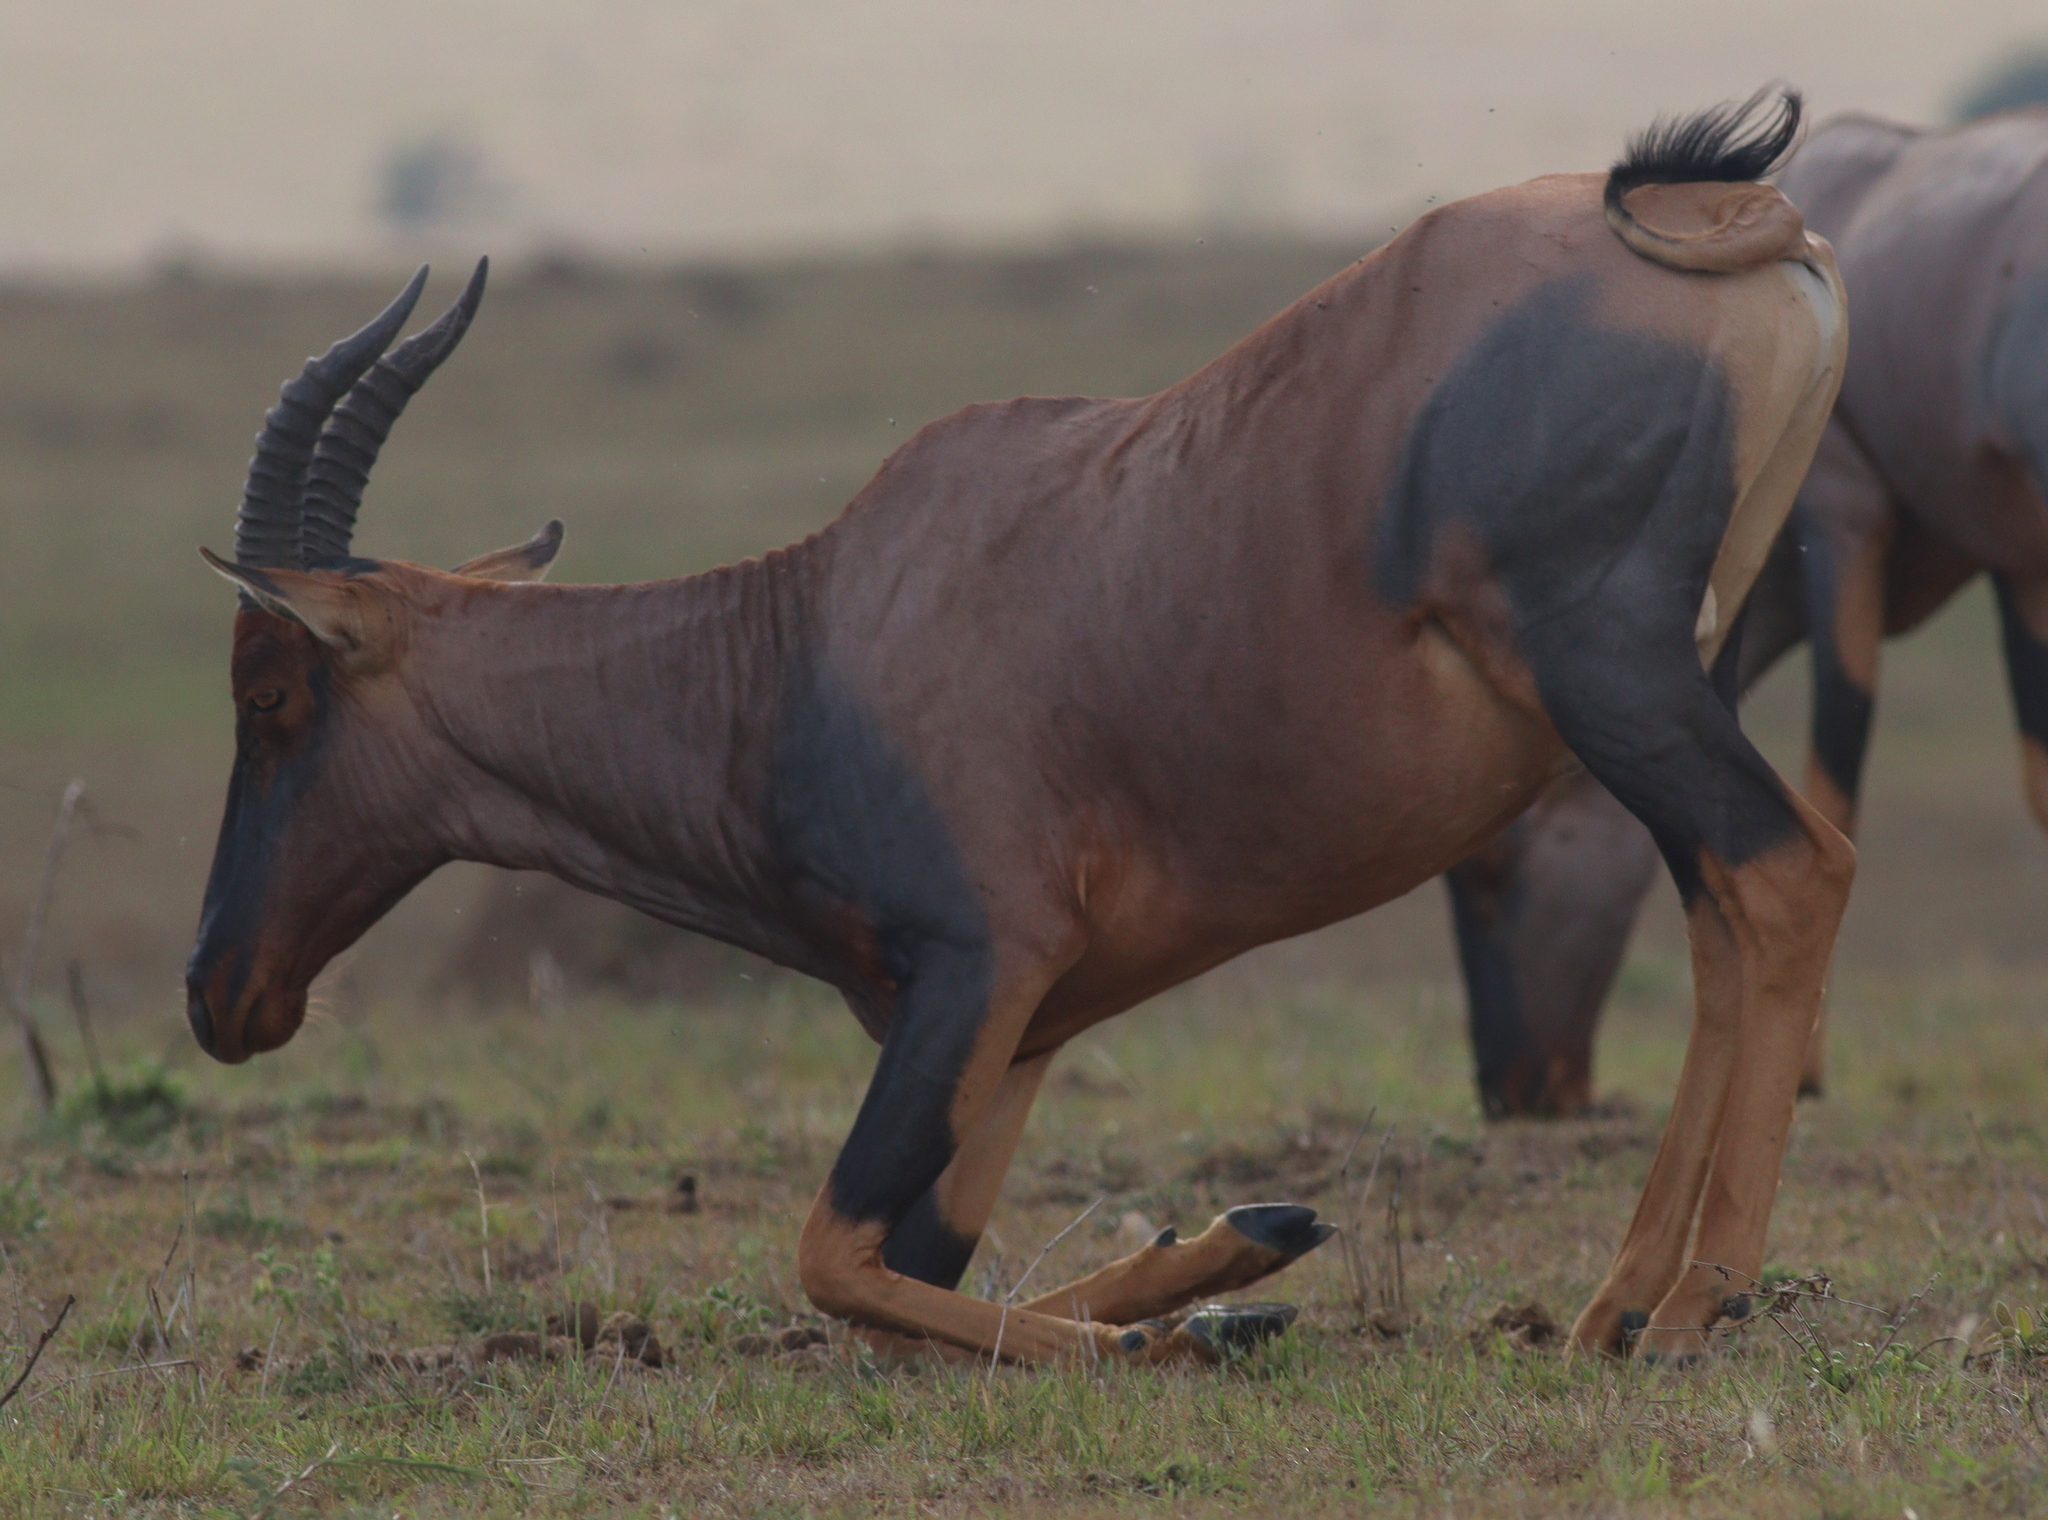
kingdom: Animalia
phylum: Chordata
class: Mammalia
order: Artiodactyla
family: Bovidae
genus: Damaliscus
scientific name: Damaliscus korrigum
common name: Topi
